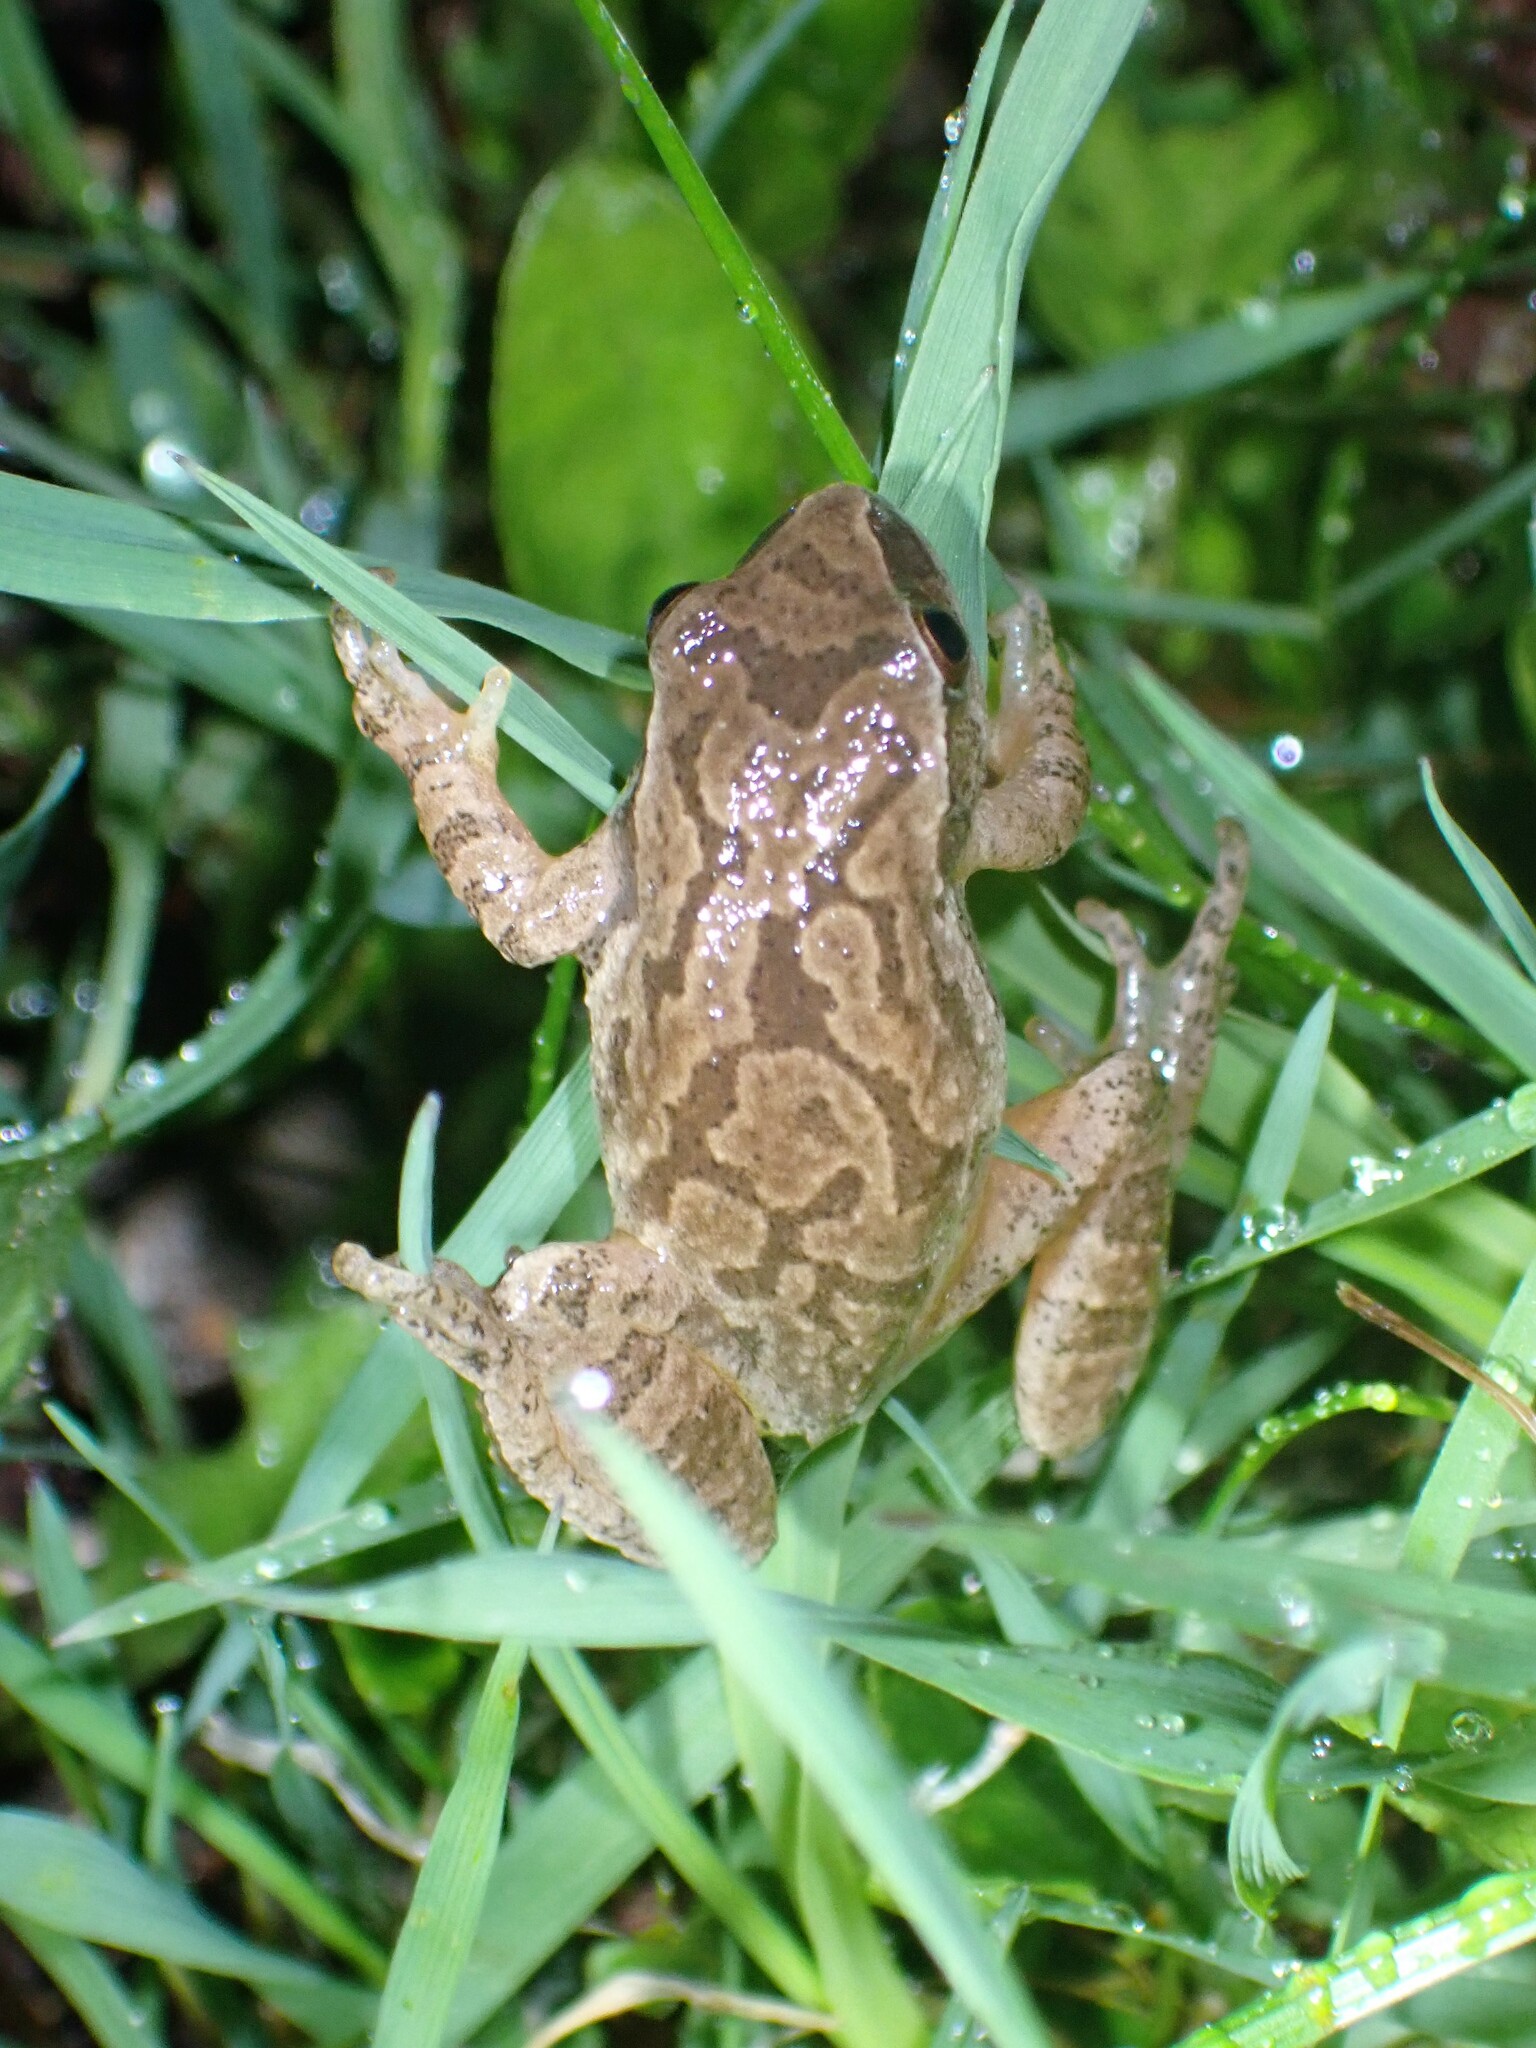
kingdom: Animalia
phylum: Chordata
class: Amphibia
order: Anura
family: Hylidae
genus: Pseudacris
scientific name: Pseudacris crucifer
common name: Spring peeper
